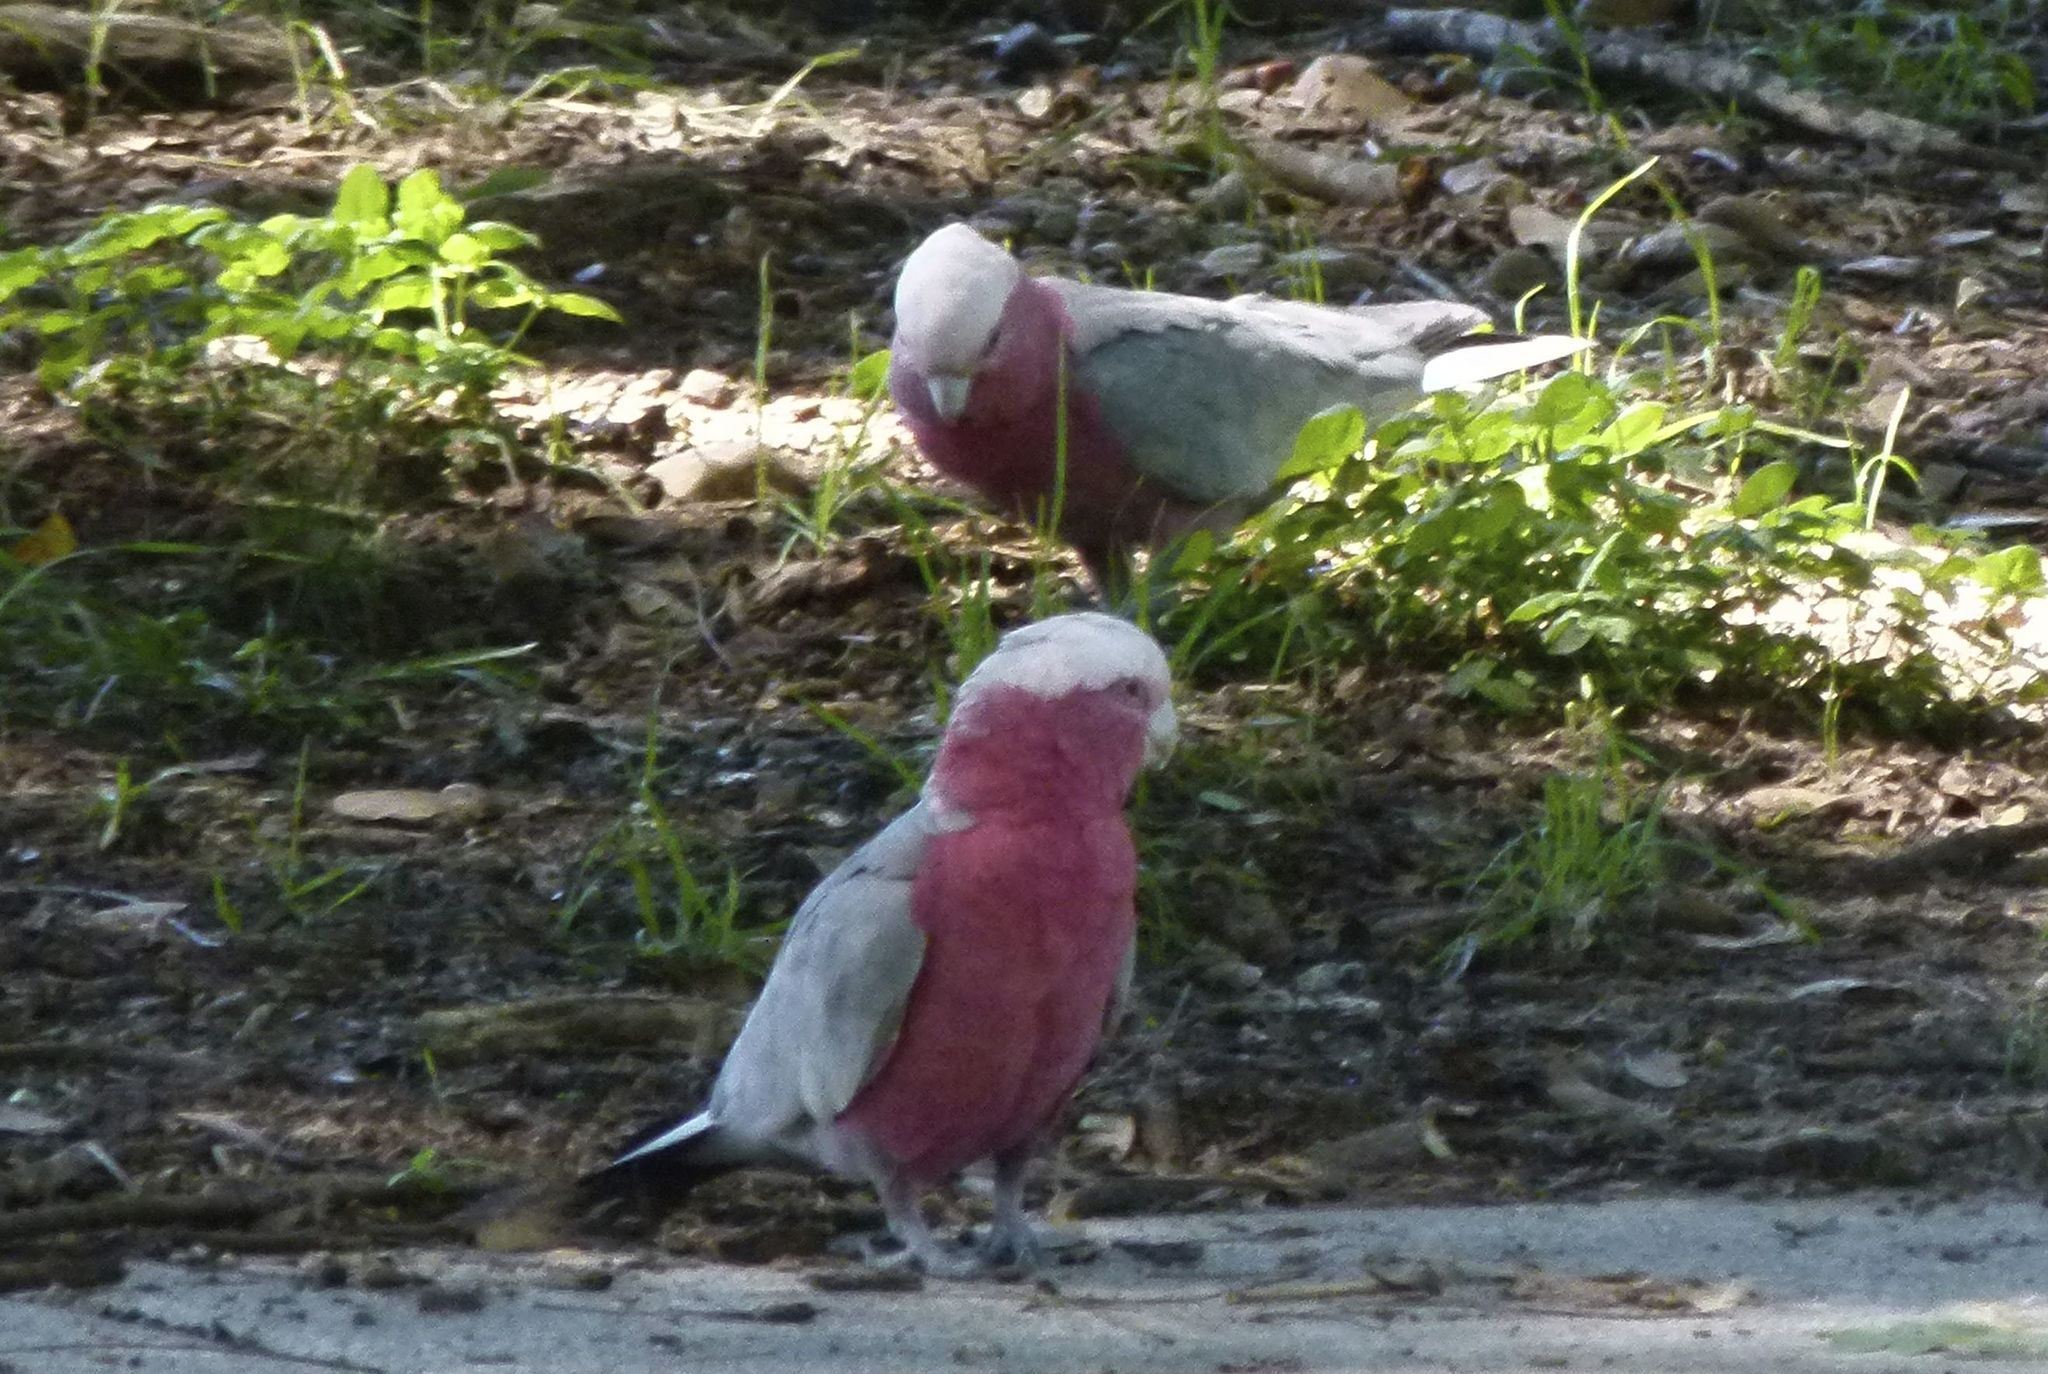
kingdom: Animalia
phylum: Chordata
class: Aves
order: Psittaciformes
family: Psittacidae
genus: Eolophus
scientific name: Eolophus roseicapilla
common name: Galah
